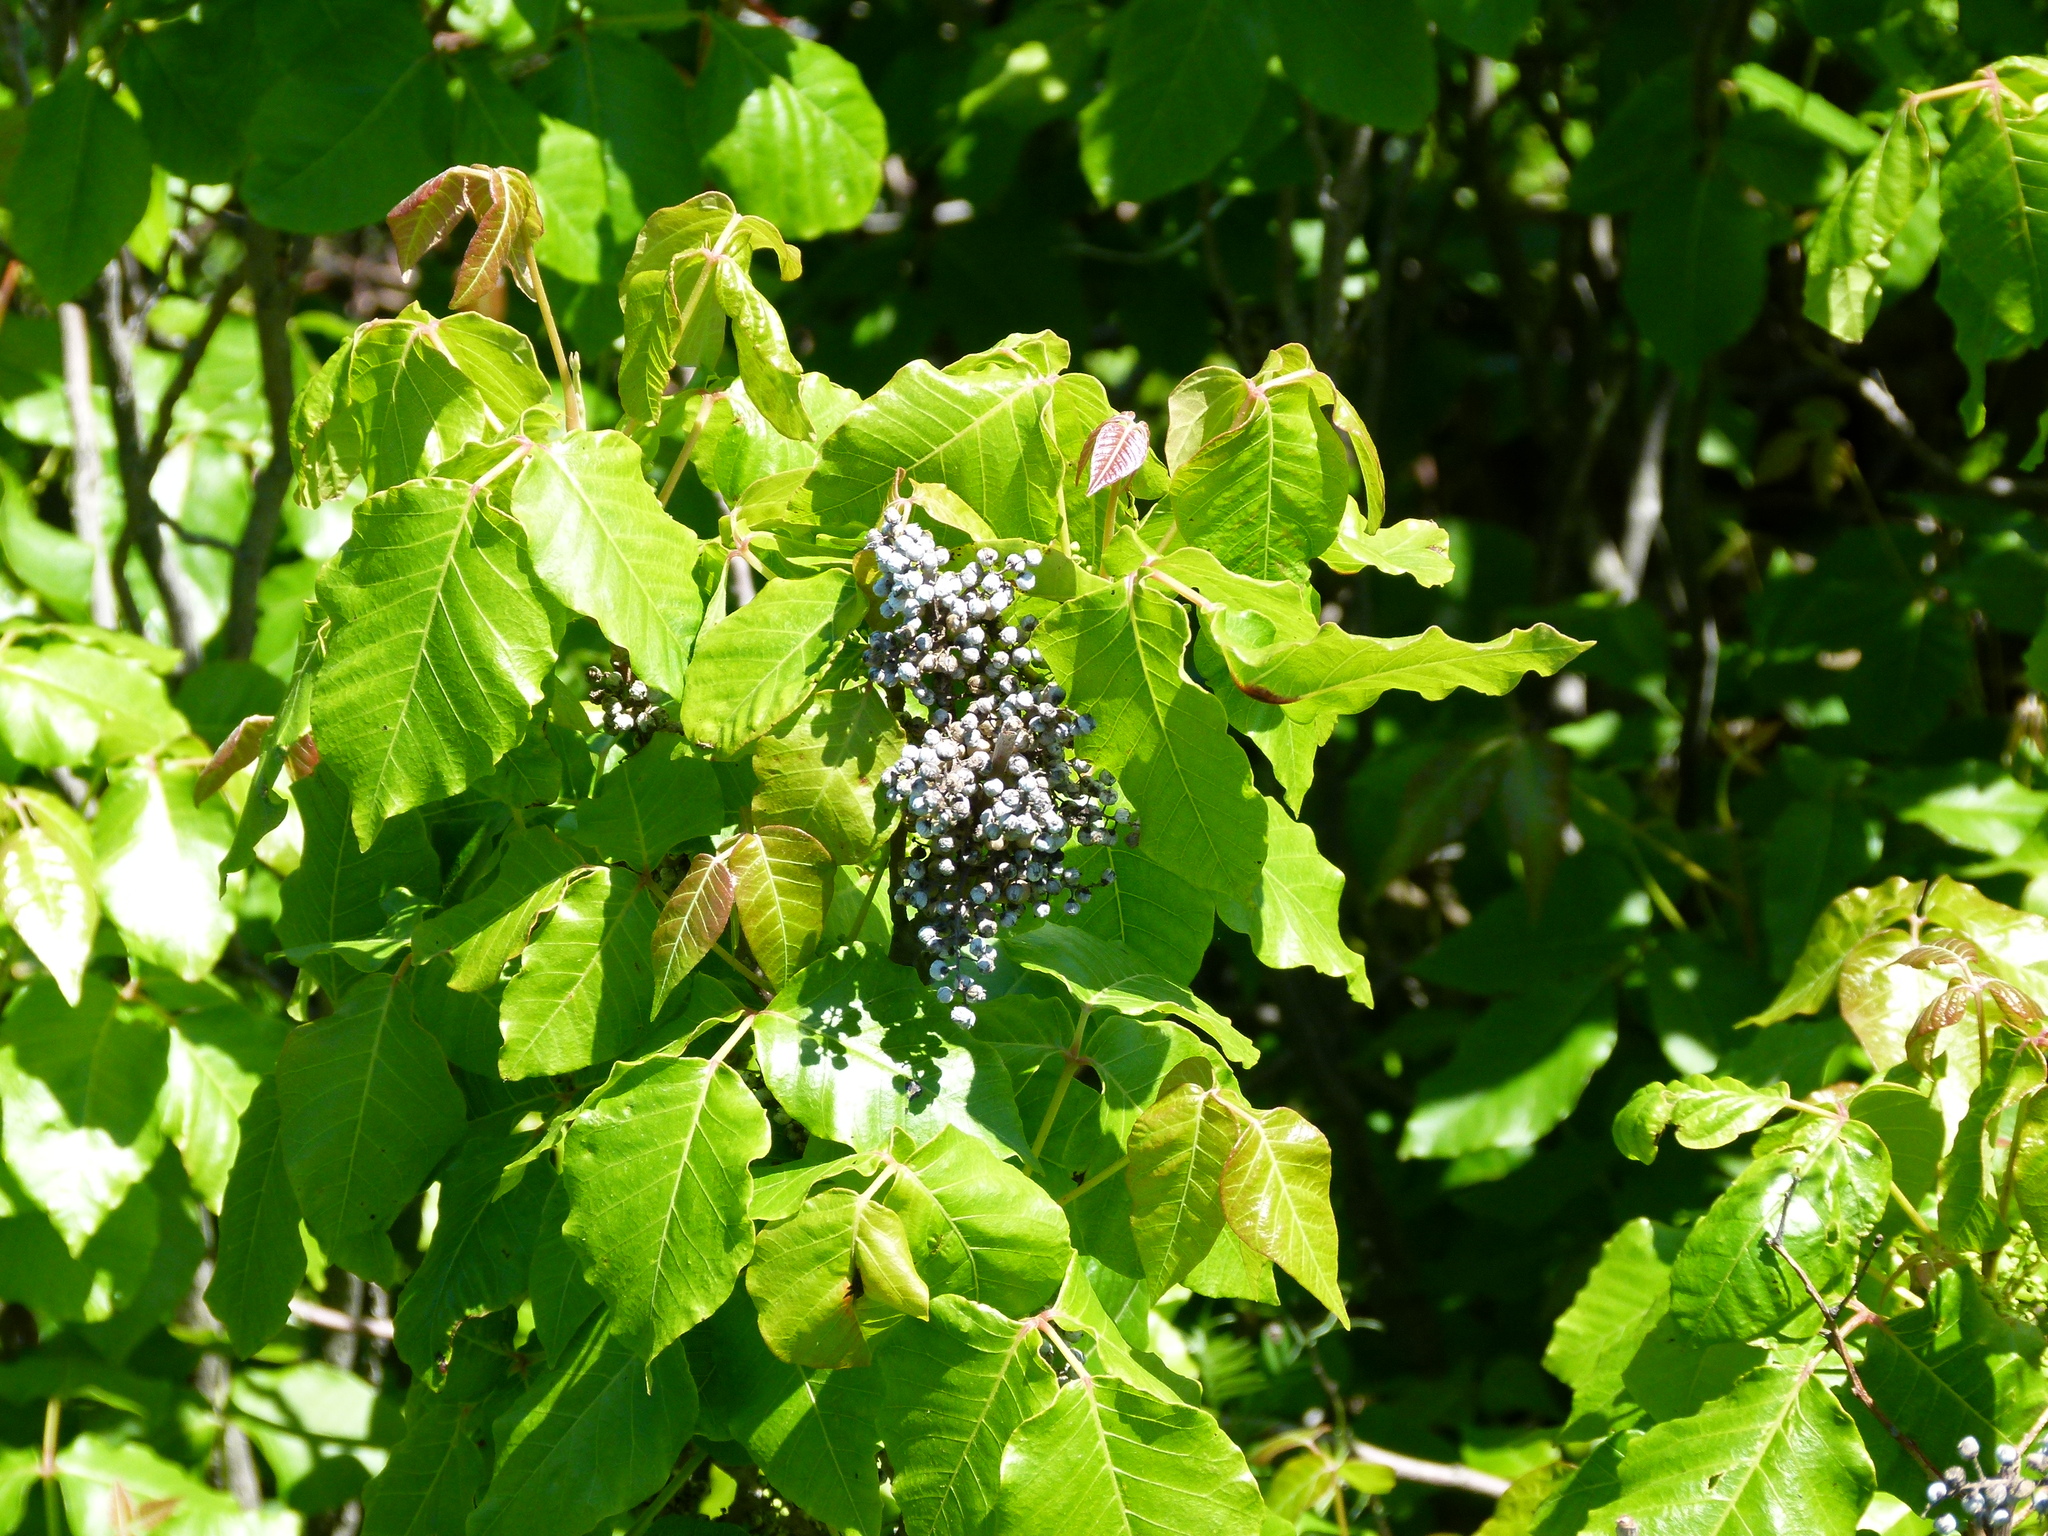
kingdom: Plantae
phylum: Tracheophyta
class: Magnoliopsida
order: Sapindales
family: Anacardiaceae
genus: Toxicodendron
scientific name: Toxicodendron radicans
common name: Poison ivy
